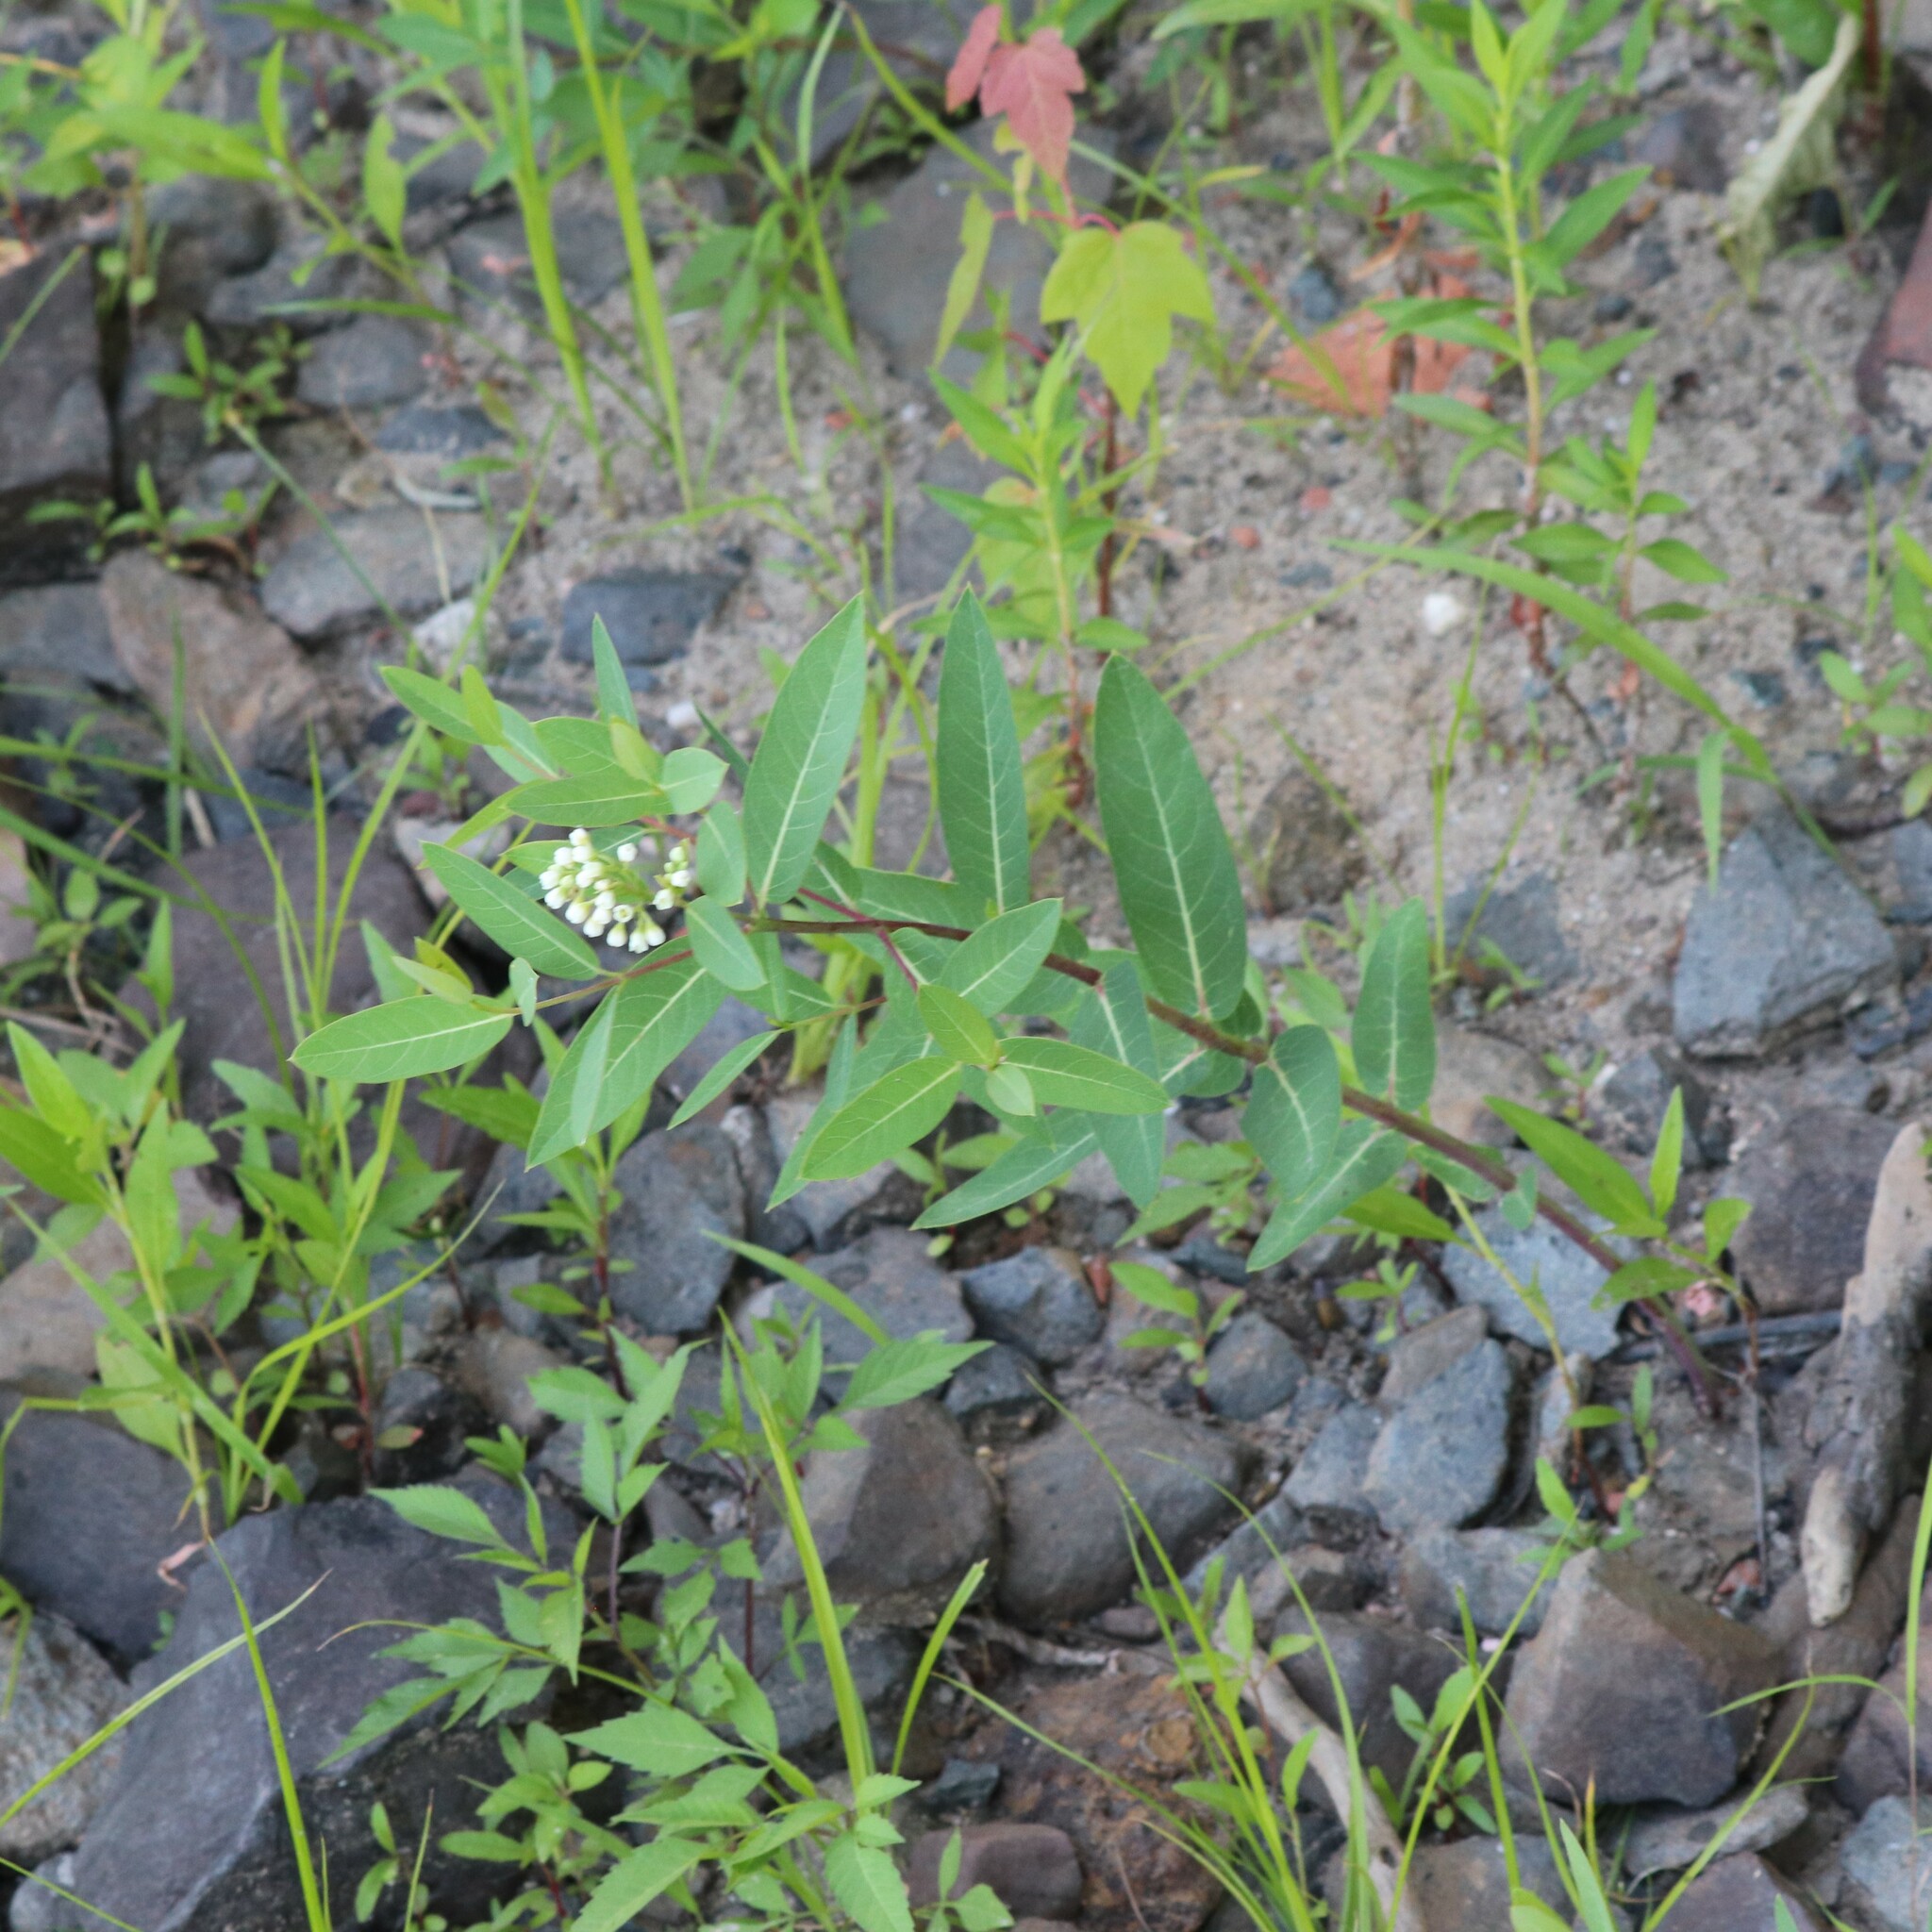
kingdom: Plantae
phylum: Tracheophyta
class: Magnoliopsida
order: Gentianales
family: Apocynaceae
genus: Apocynum
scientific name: Apocynum cannabinum
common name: Hemp dogbane
